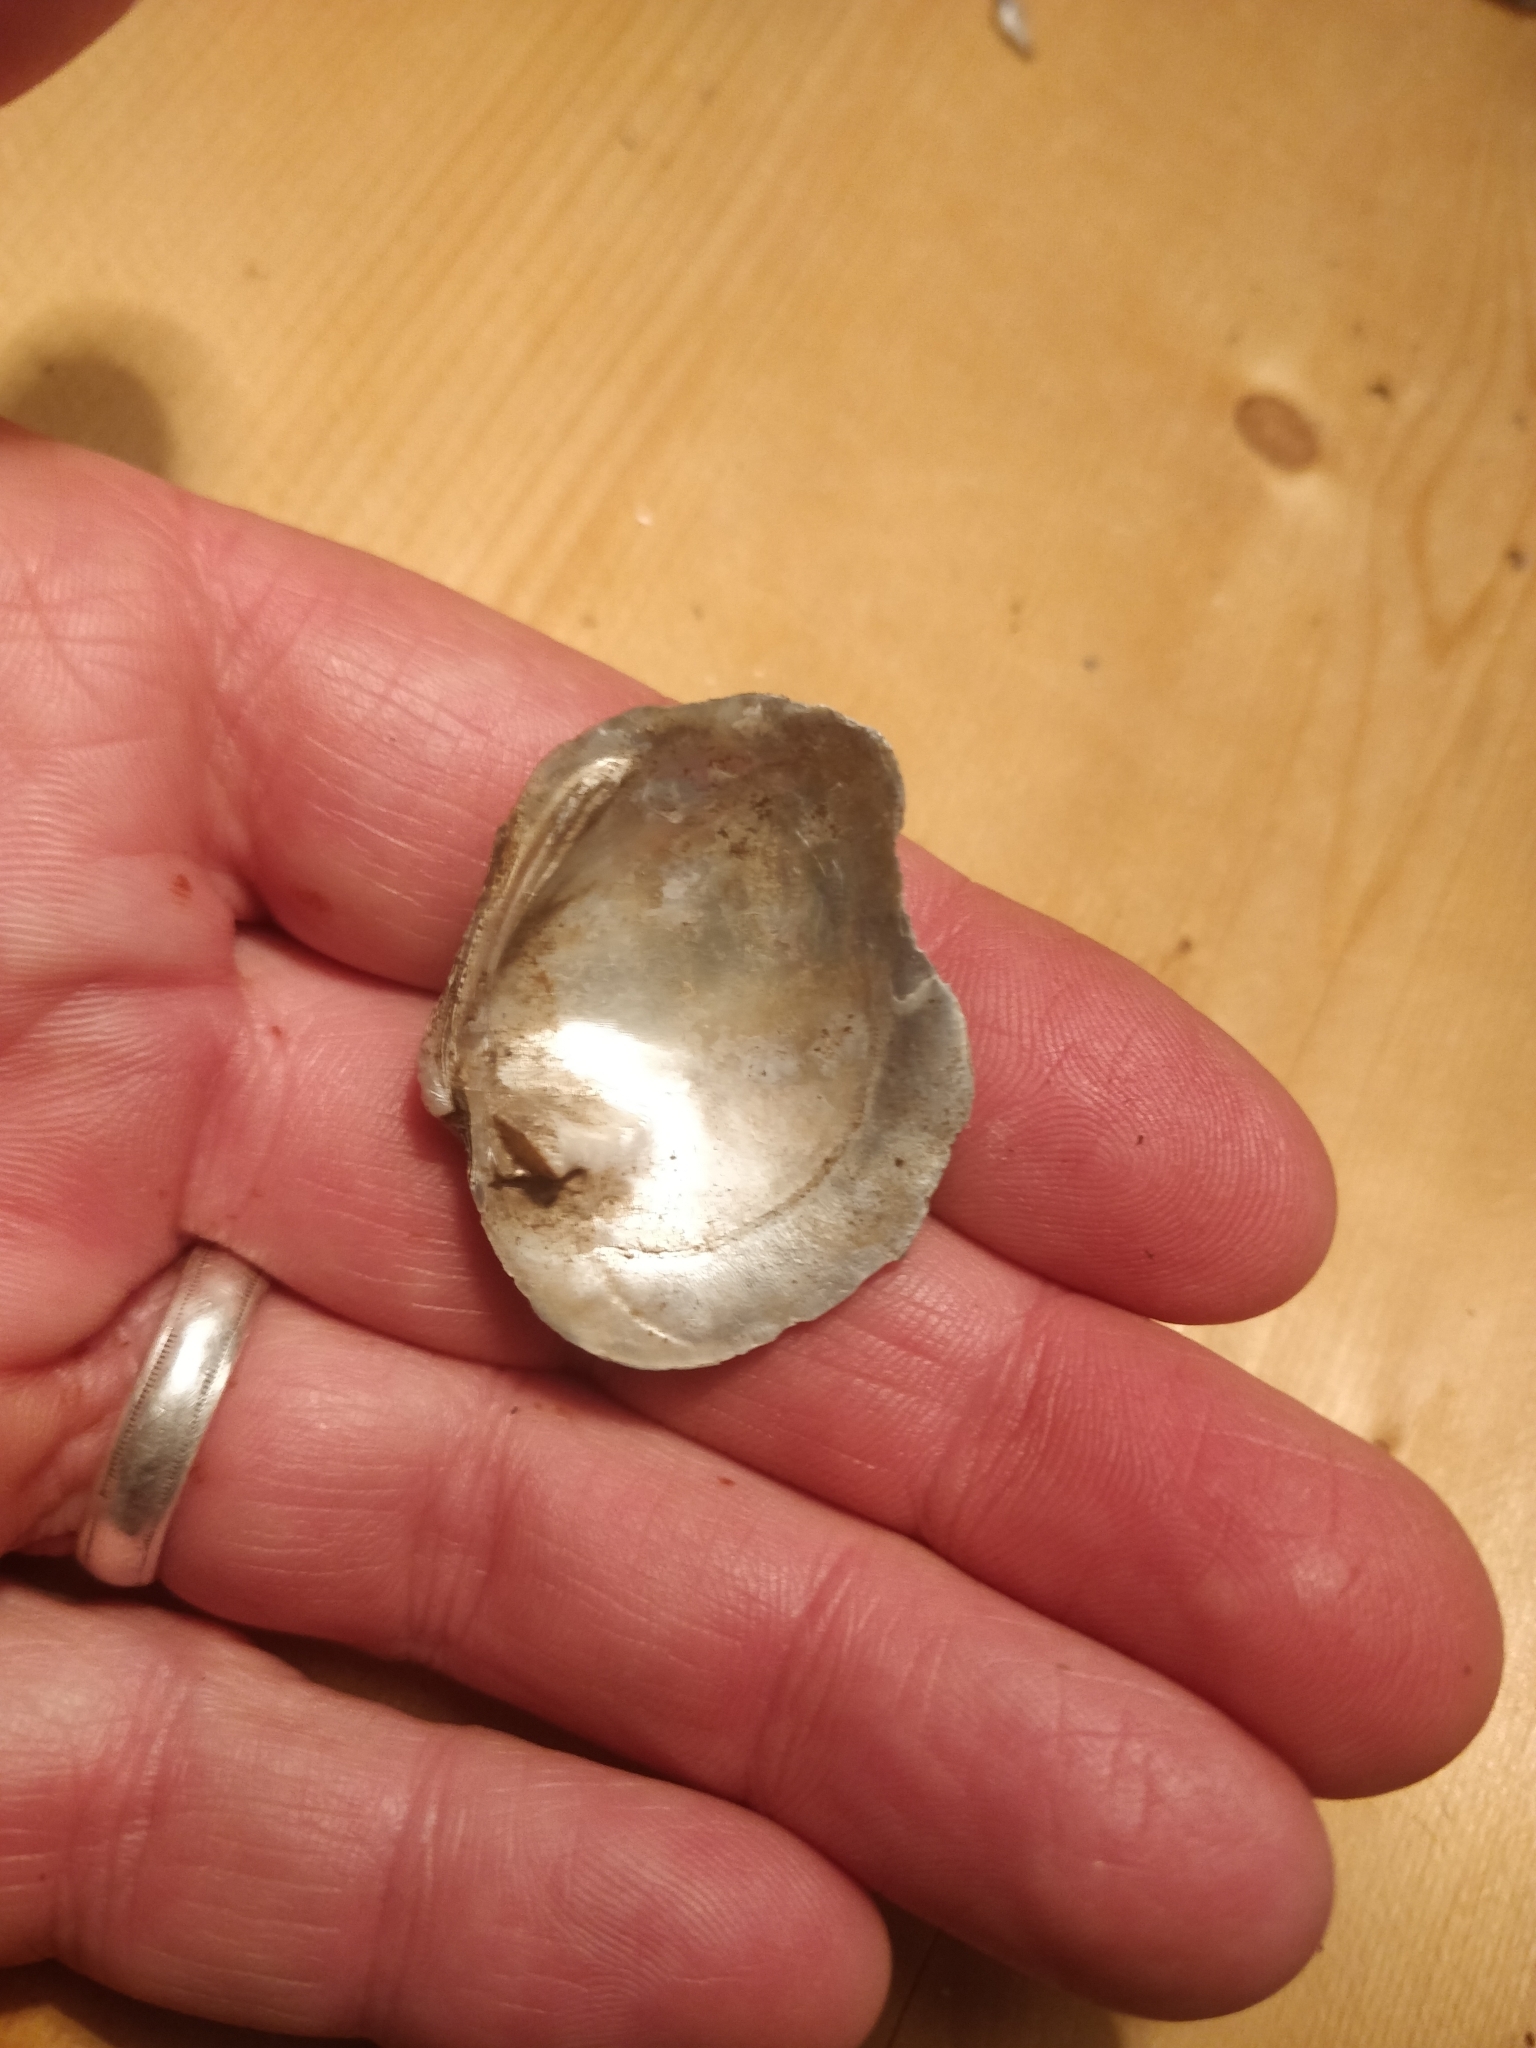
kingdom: Animalia
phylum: Mollusca
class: Bivalvia
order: Unionida
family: Unionidae
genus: Quadrula
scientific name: Quadrula quadrula
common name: Mapleleaf
